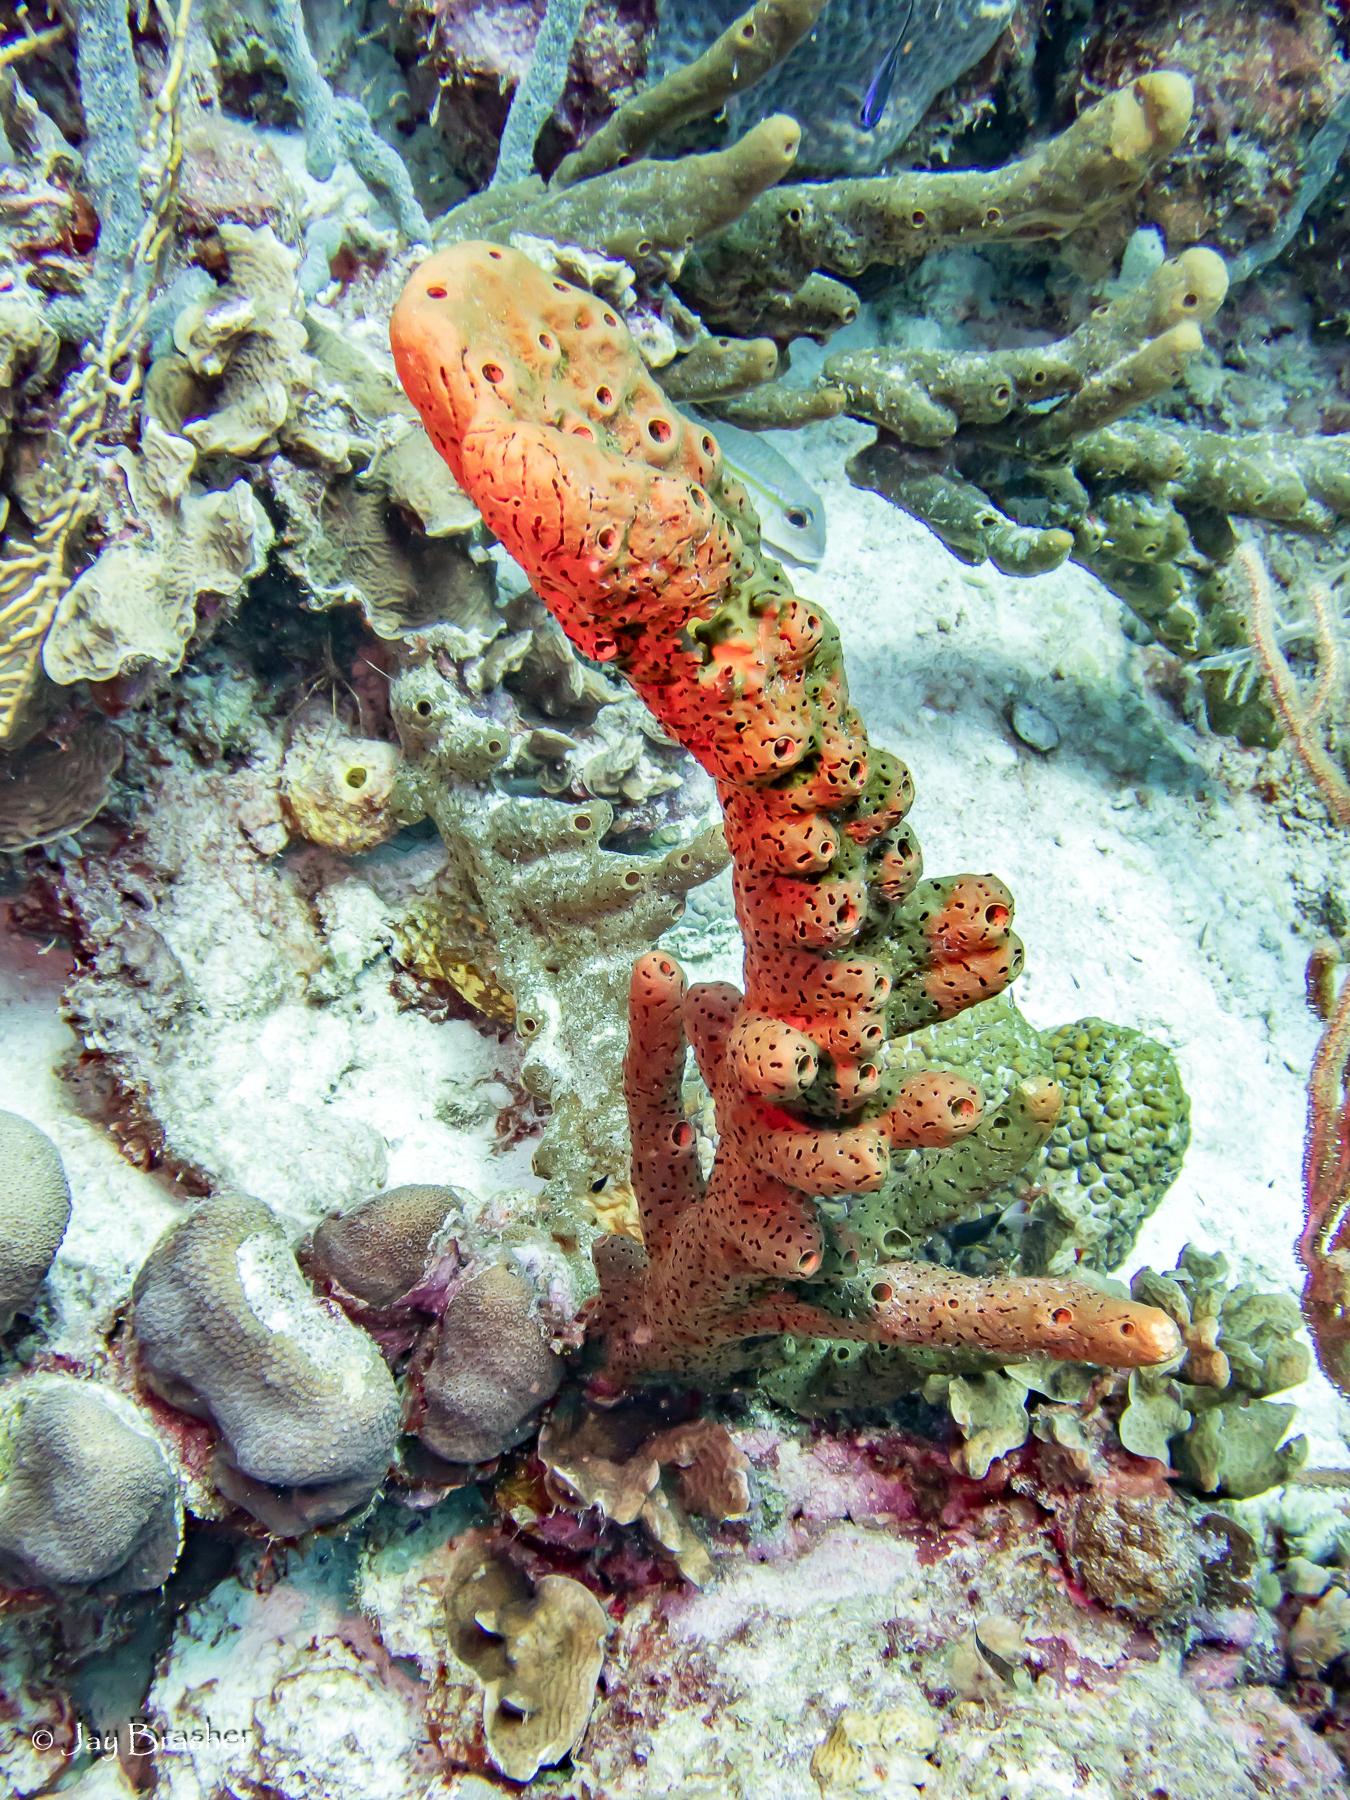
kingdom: Animalia
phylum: Porifera
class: Demospongiae
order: Agelasida
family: Agelasidae
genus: Agelas
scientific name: Agelas conifera
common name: Brown tube sponge
